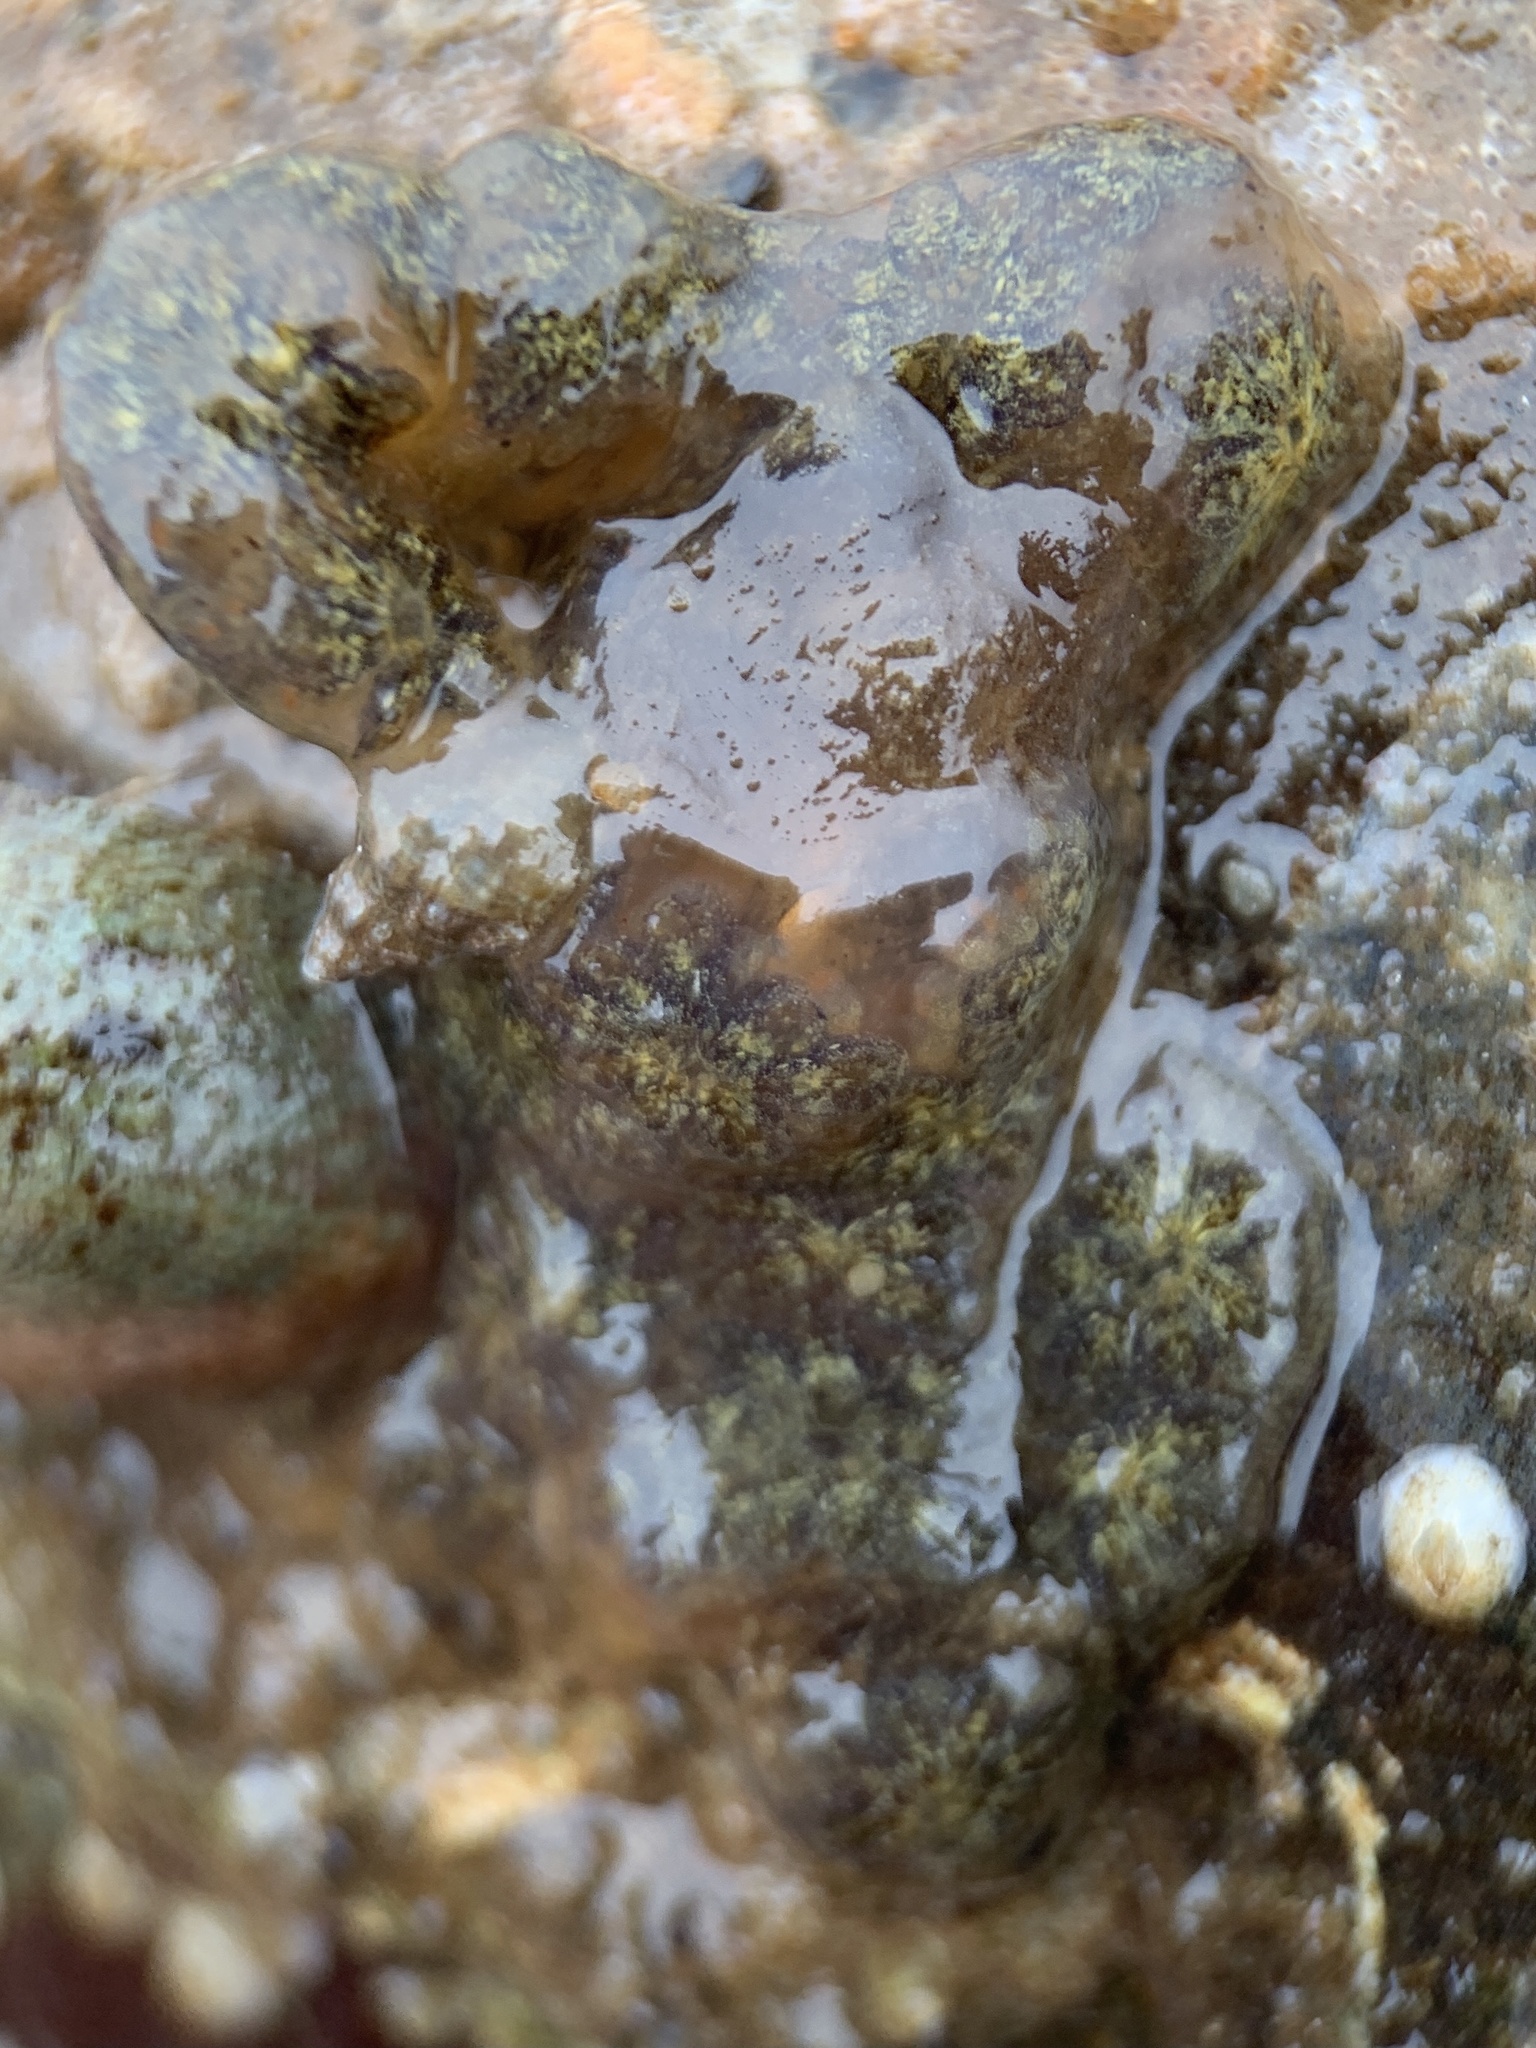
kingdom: Animalia
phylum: Chordata
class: Ascidiacea
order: Stolidobranchia
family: Styelidae
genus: Botryllus
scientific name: Botryllus schlosseri
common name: Golden star tunicate
